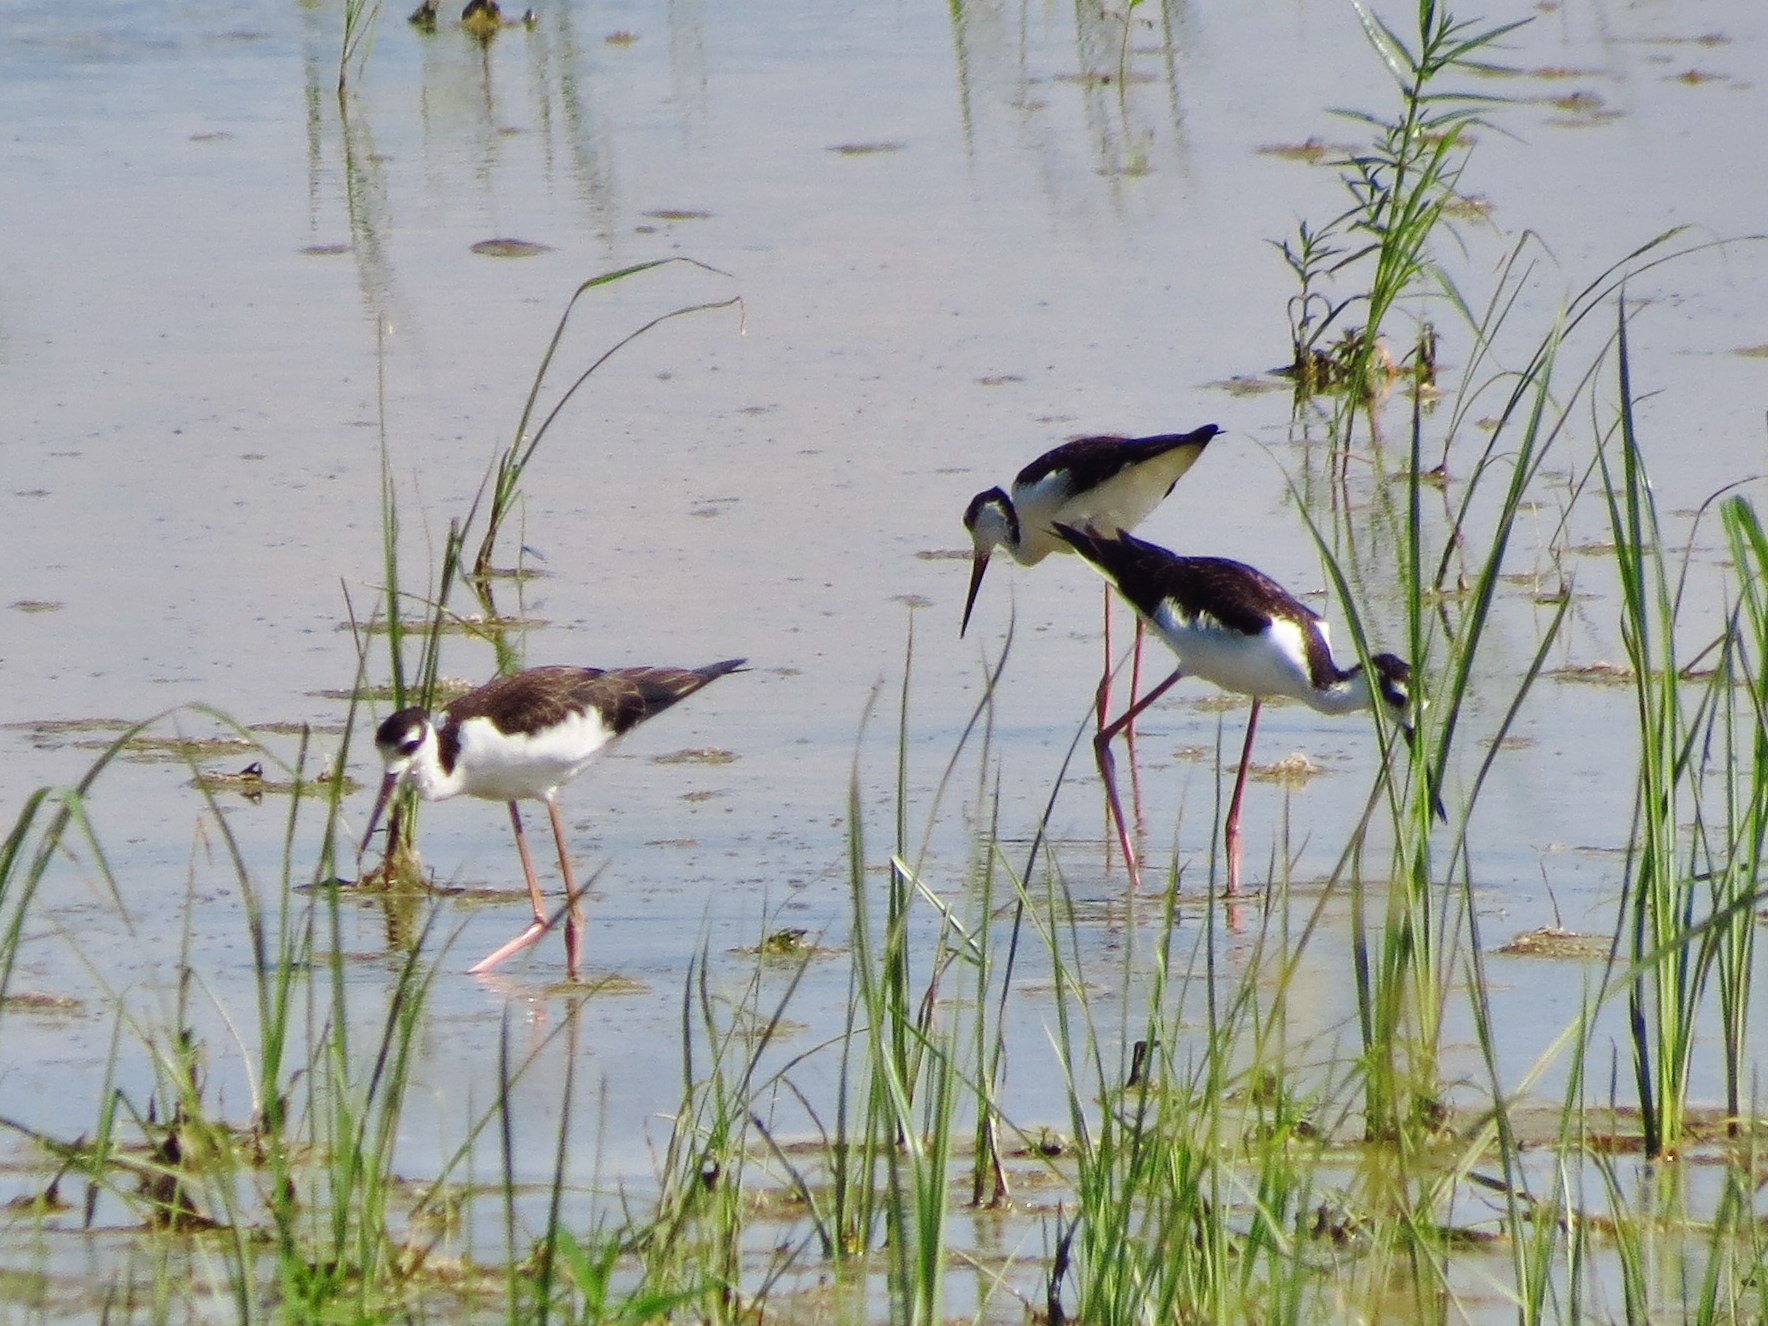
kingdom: Animalia
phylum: Chordata
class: Aves
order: Charadriiformes
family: Recurvirostridae
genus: Himantopus
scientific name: Himantopus mexicanus
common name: Black-necked stilt
